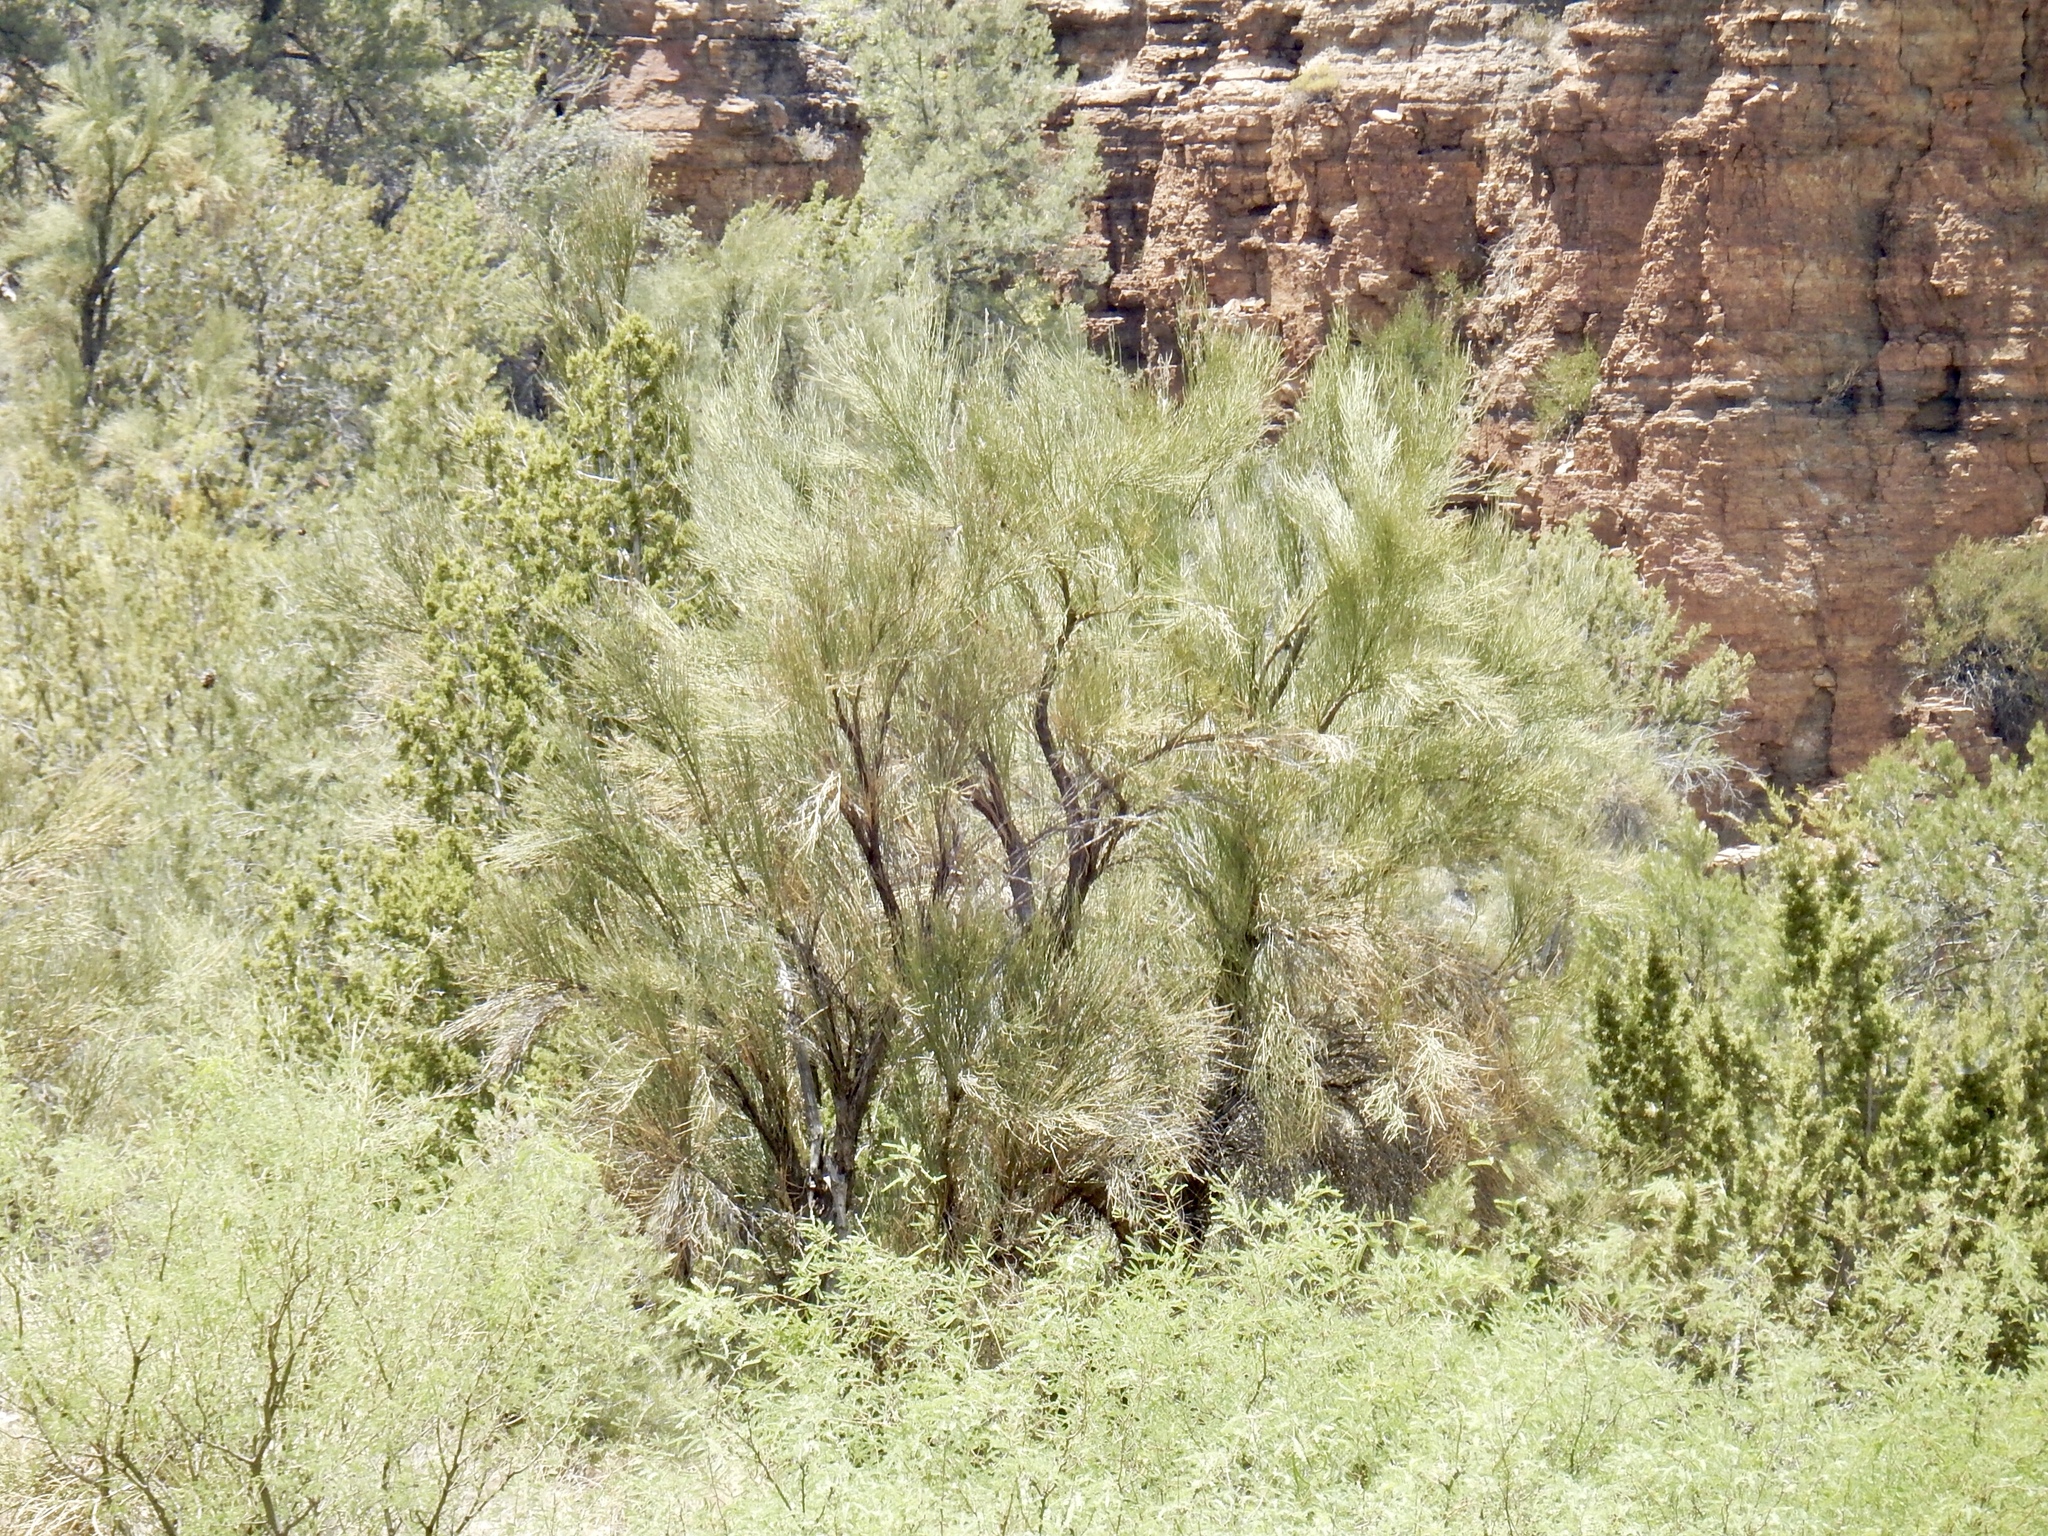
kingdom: Plantae
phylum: Tracheophyta
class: Magnoliopsida
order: Celastrales
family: Celastraceae
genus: Canotia
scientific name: Canotia holacantha
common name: Crucifixion thorns
